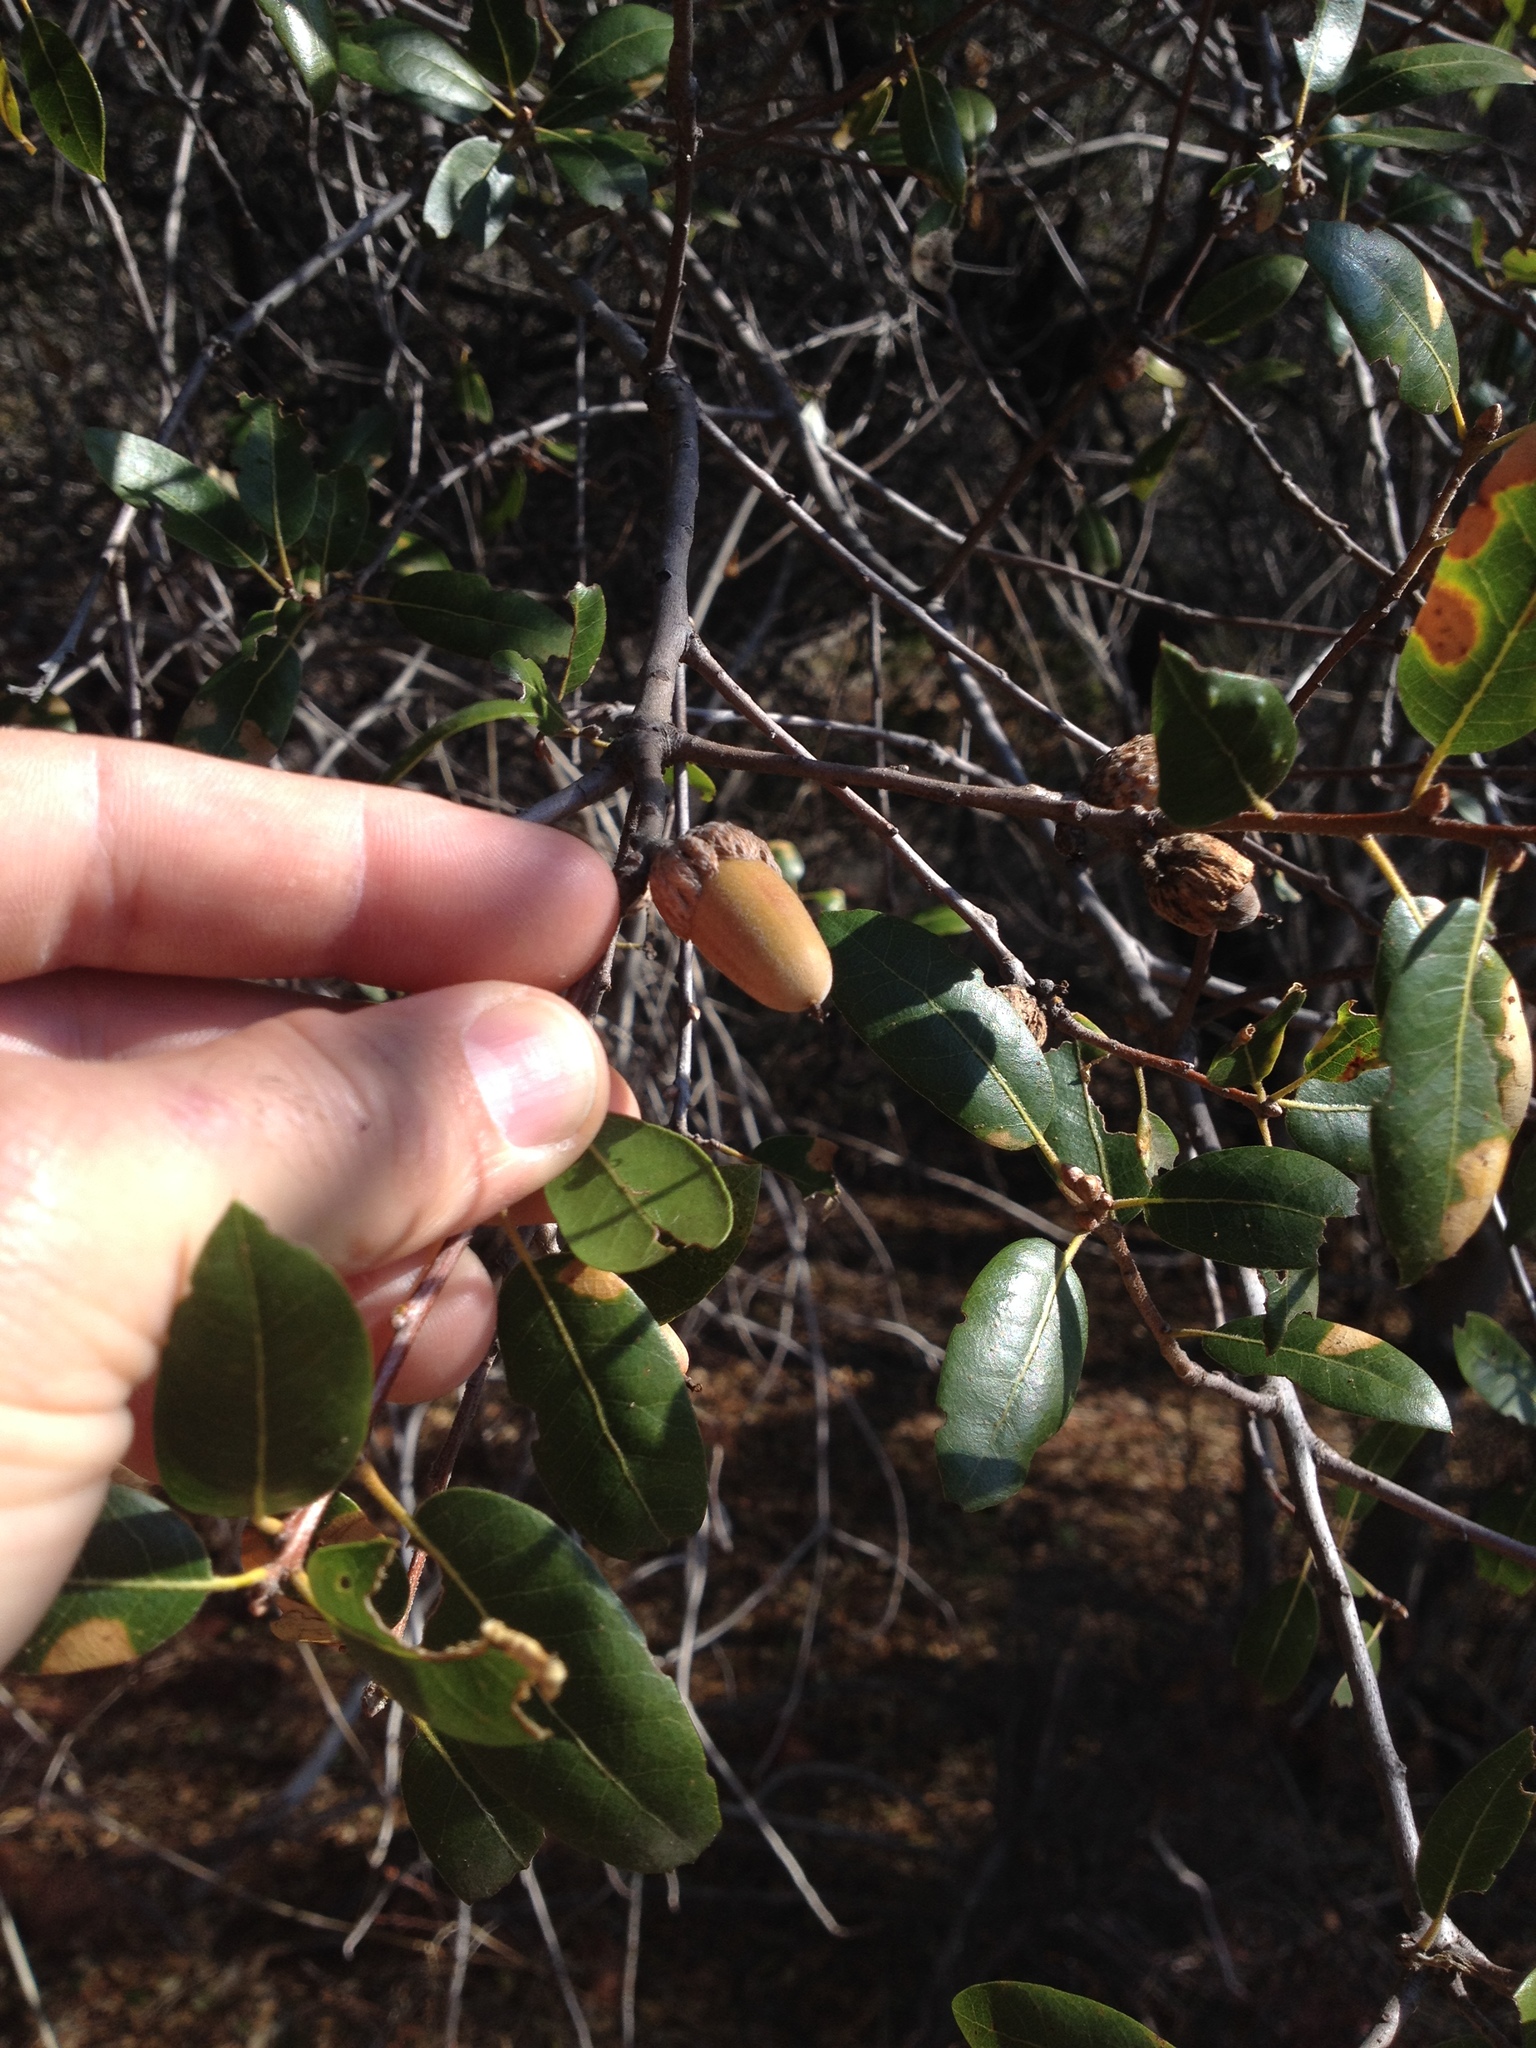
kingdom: Plantae
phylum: Tracheophyta
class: Magnoliopsida
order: Fagales
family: Fagaceae
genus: Quercus
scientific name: Quercus wislizeni
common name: Interior live oak
